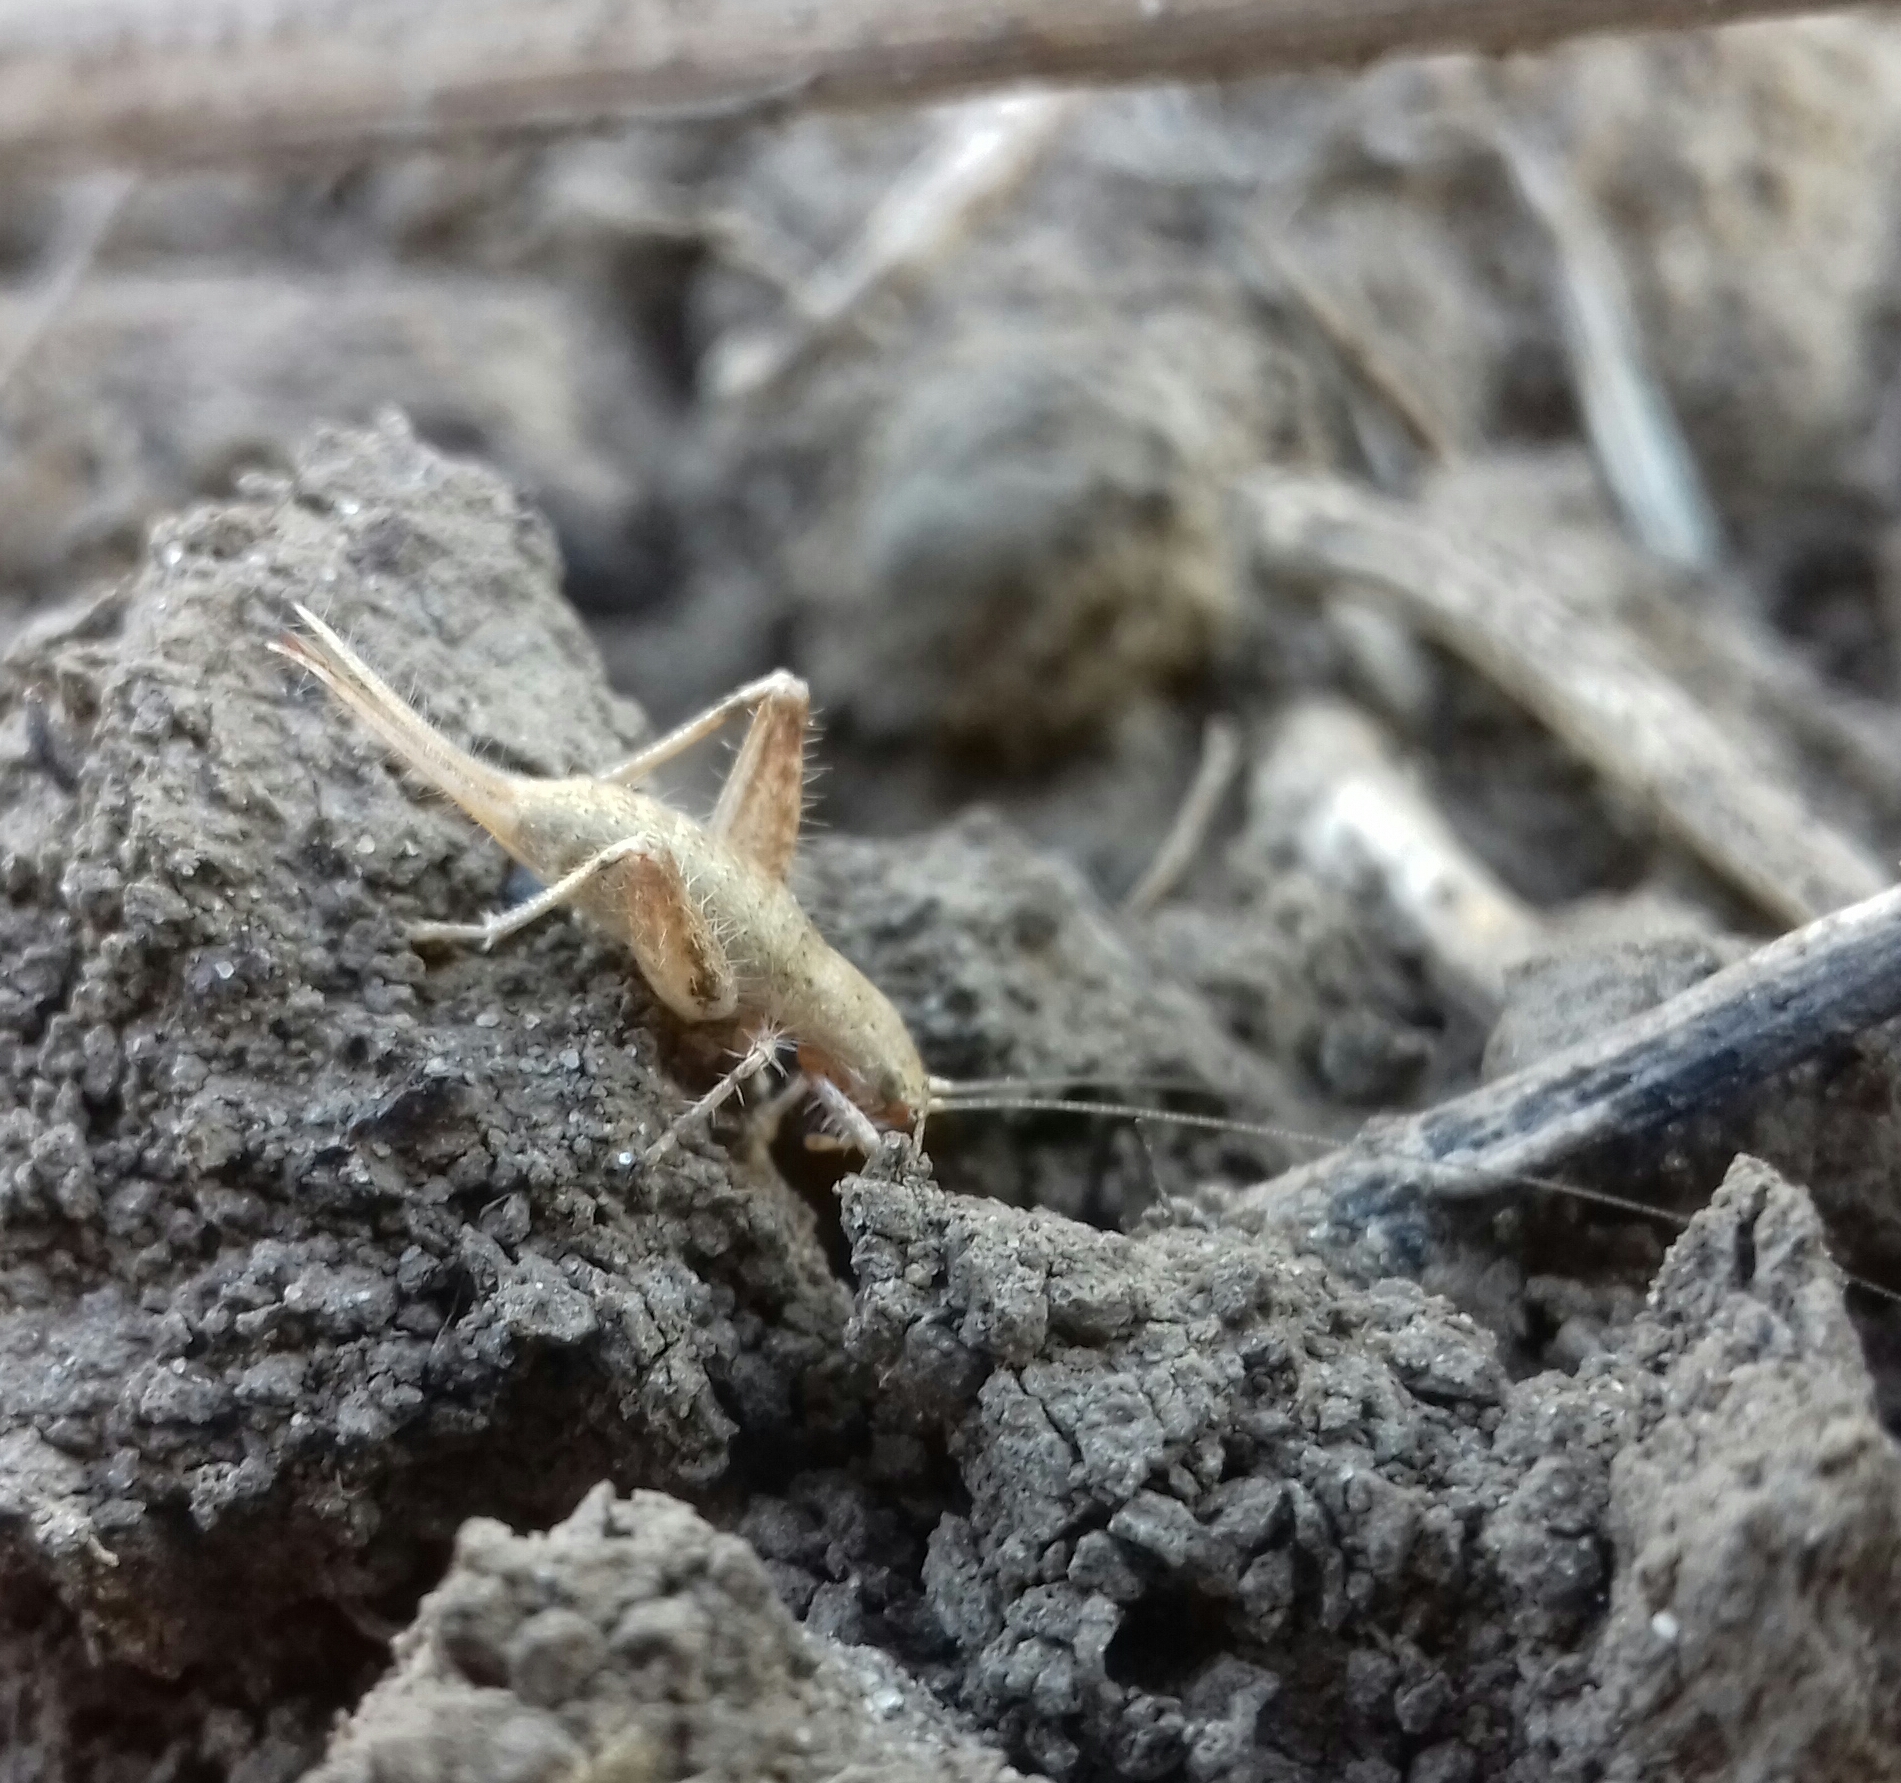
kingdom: Animalia
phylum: Arthropoda
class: Insecta
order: Orthoptera
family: Mogoplistidae
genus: Arachnocephalus
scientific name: Arachnocephalus vestitus
